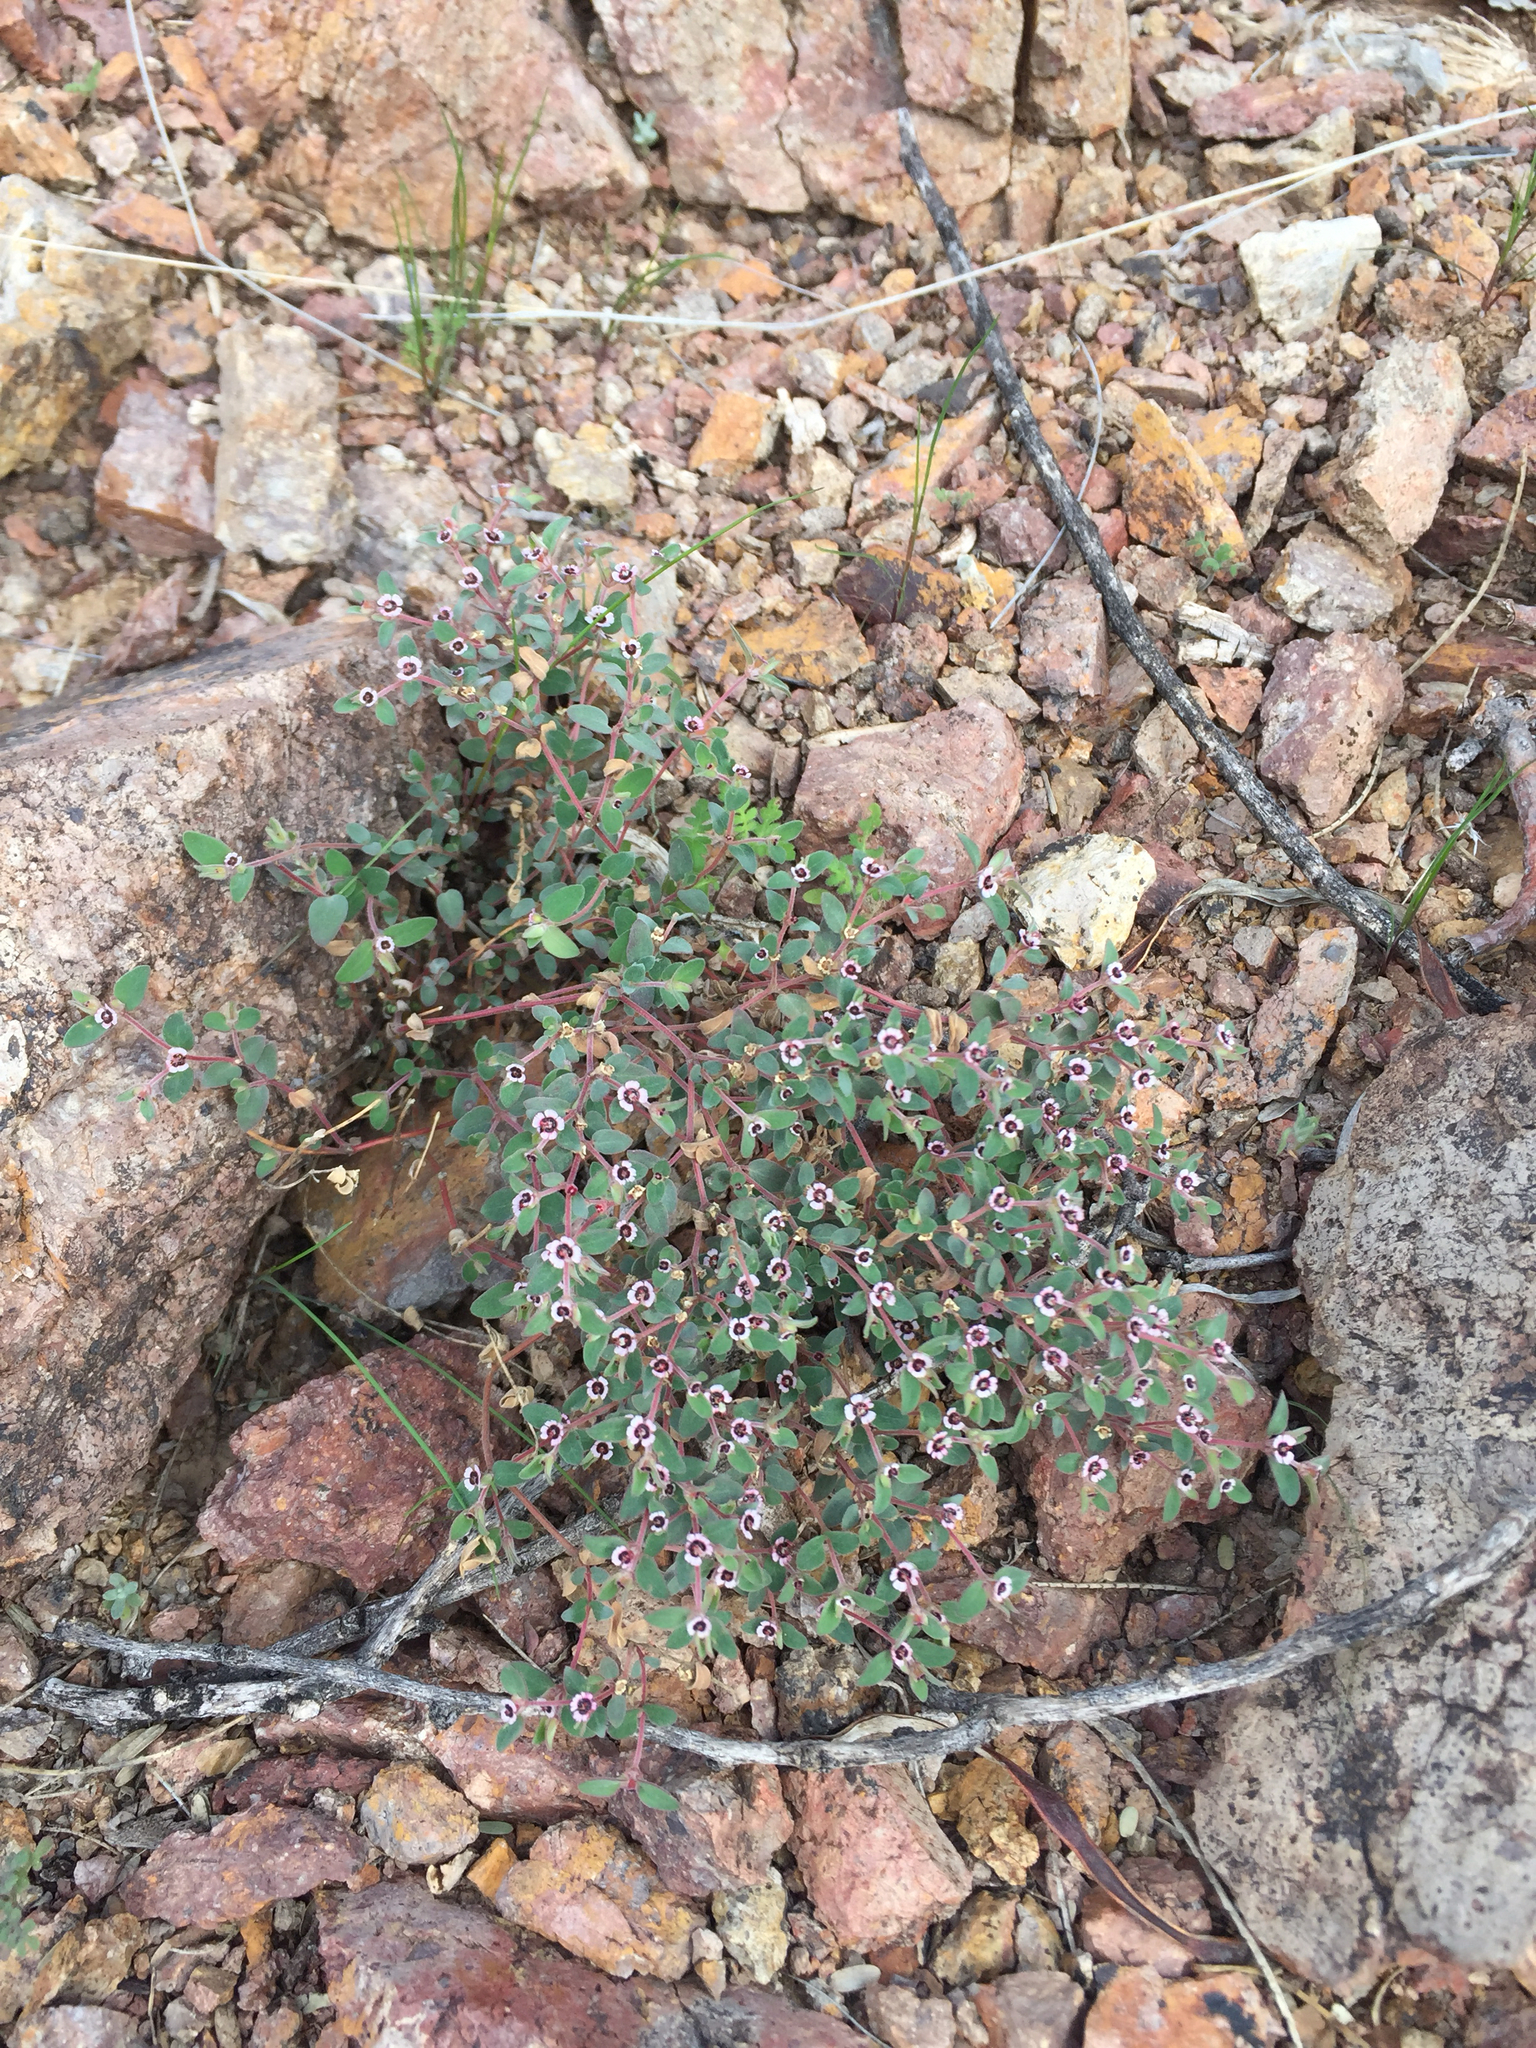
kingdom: Plantae
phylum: Tracheophyta
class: Magnoliopsida
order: Malpighiales
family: Euphorbiaceae
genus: Euphorbia
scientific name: Euphorbia melanadenia
